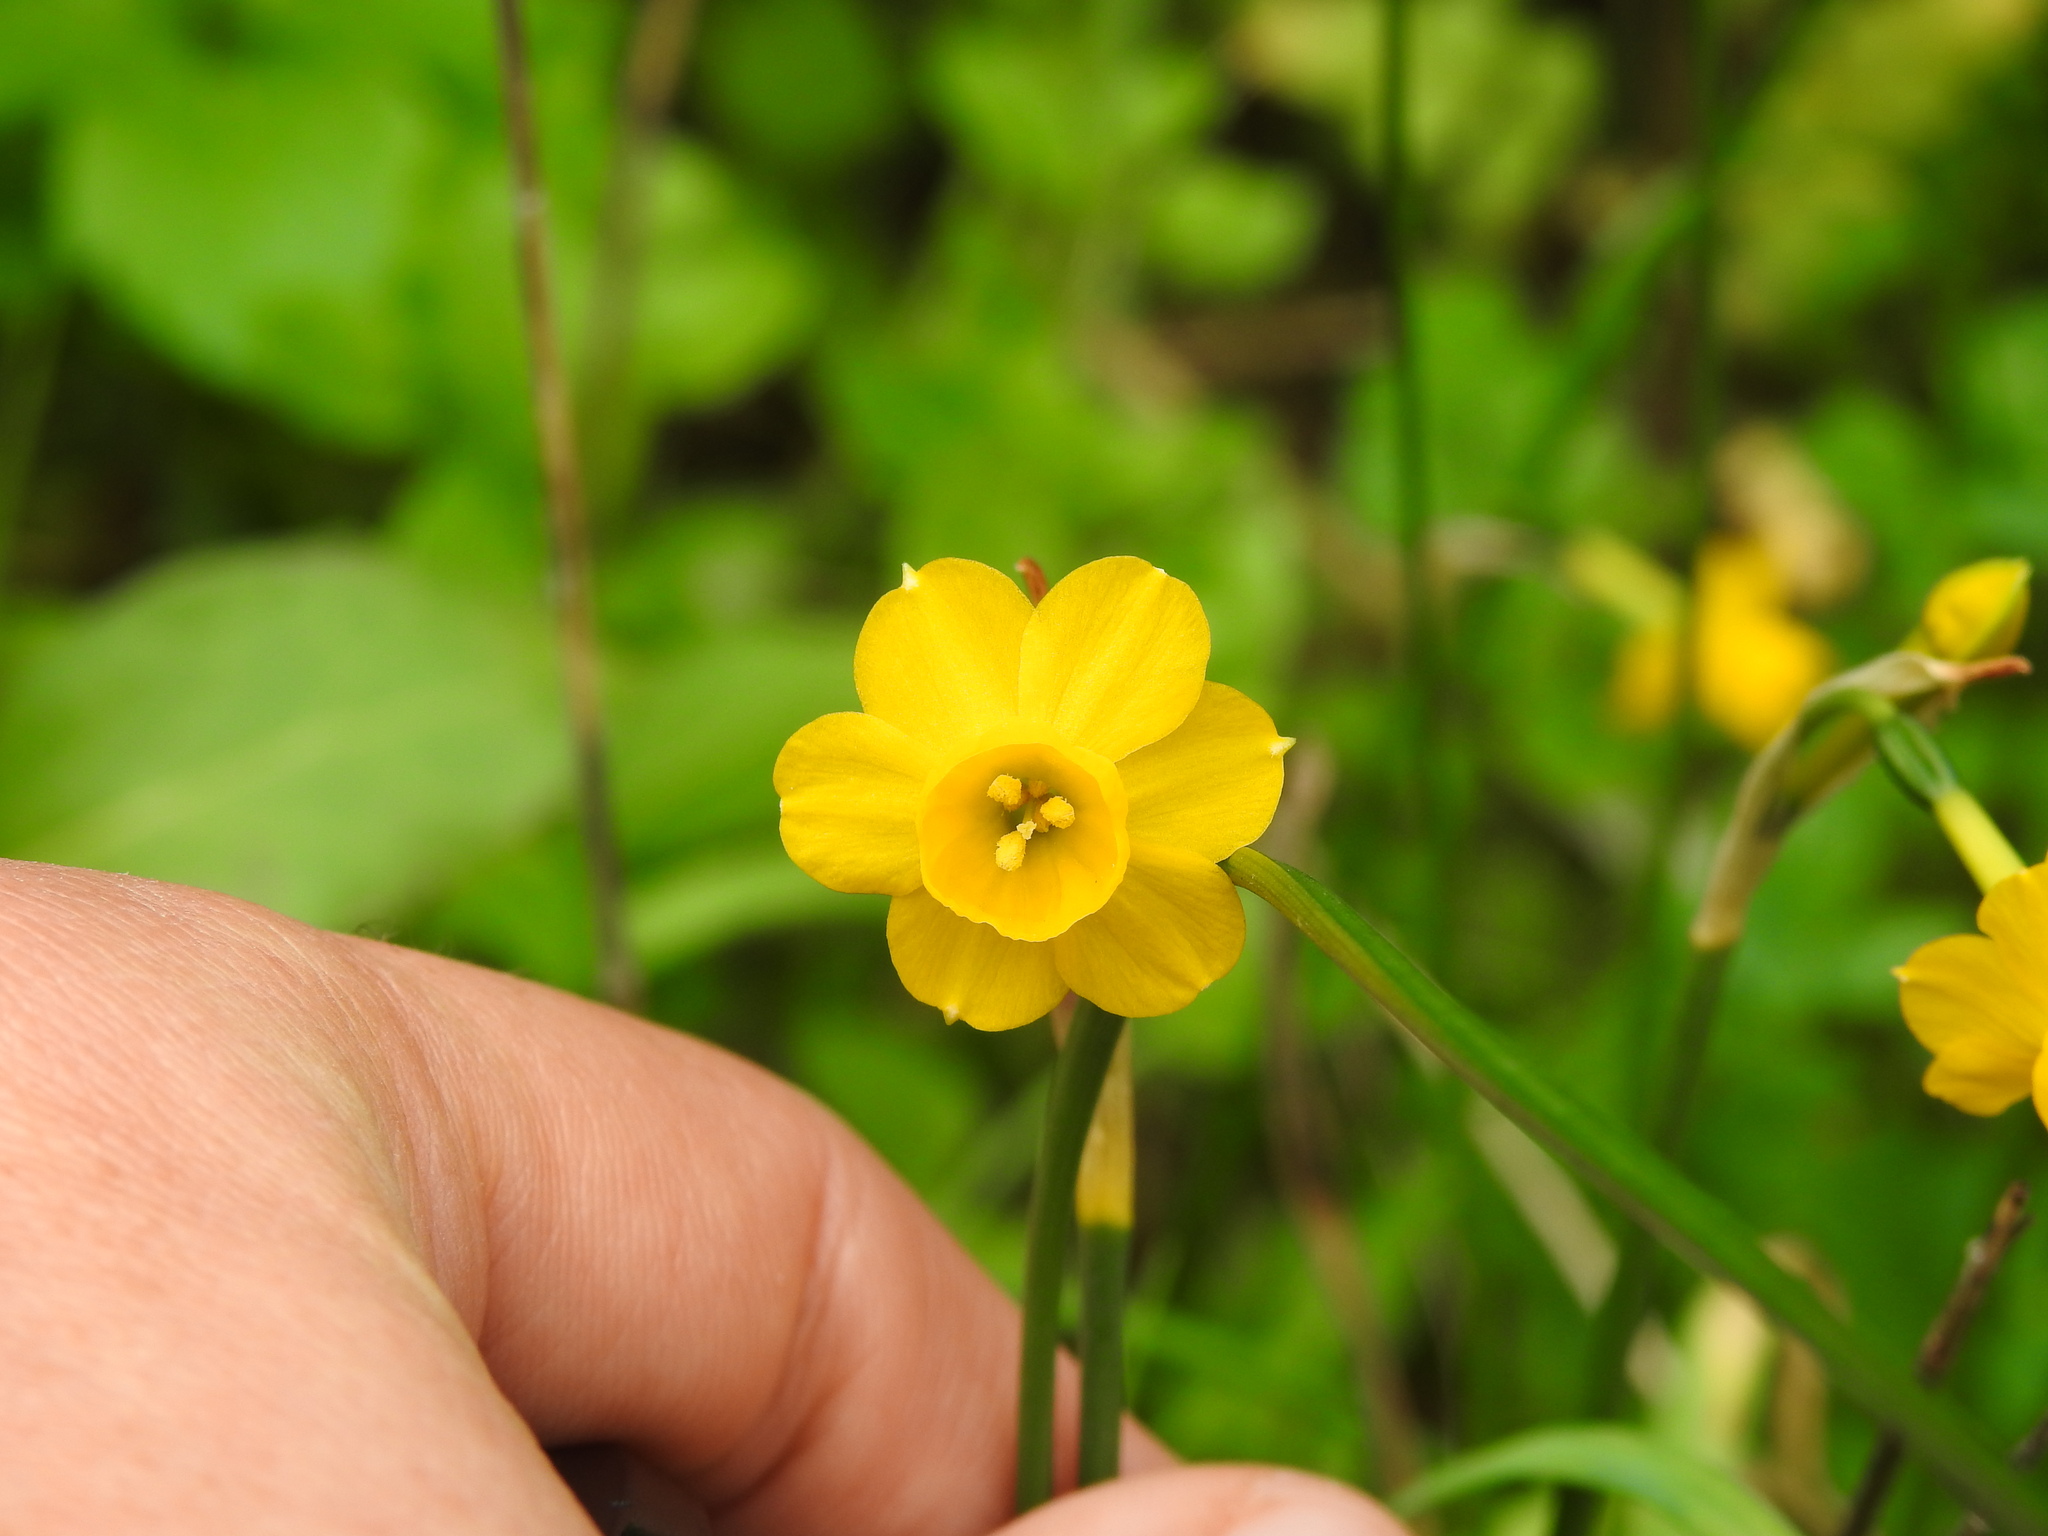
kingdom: Plantae
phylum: Tracheophyta
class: Liliopsida
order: Asparagales
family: Amaryllidaceae
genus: Narcissus
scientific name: Narcissus willkommii
